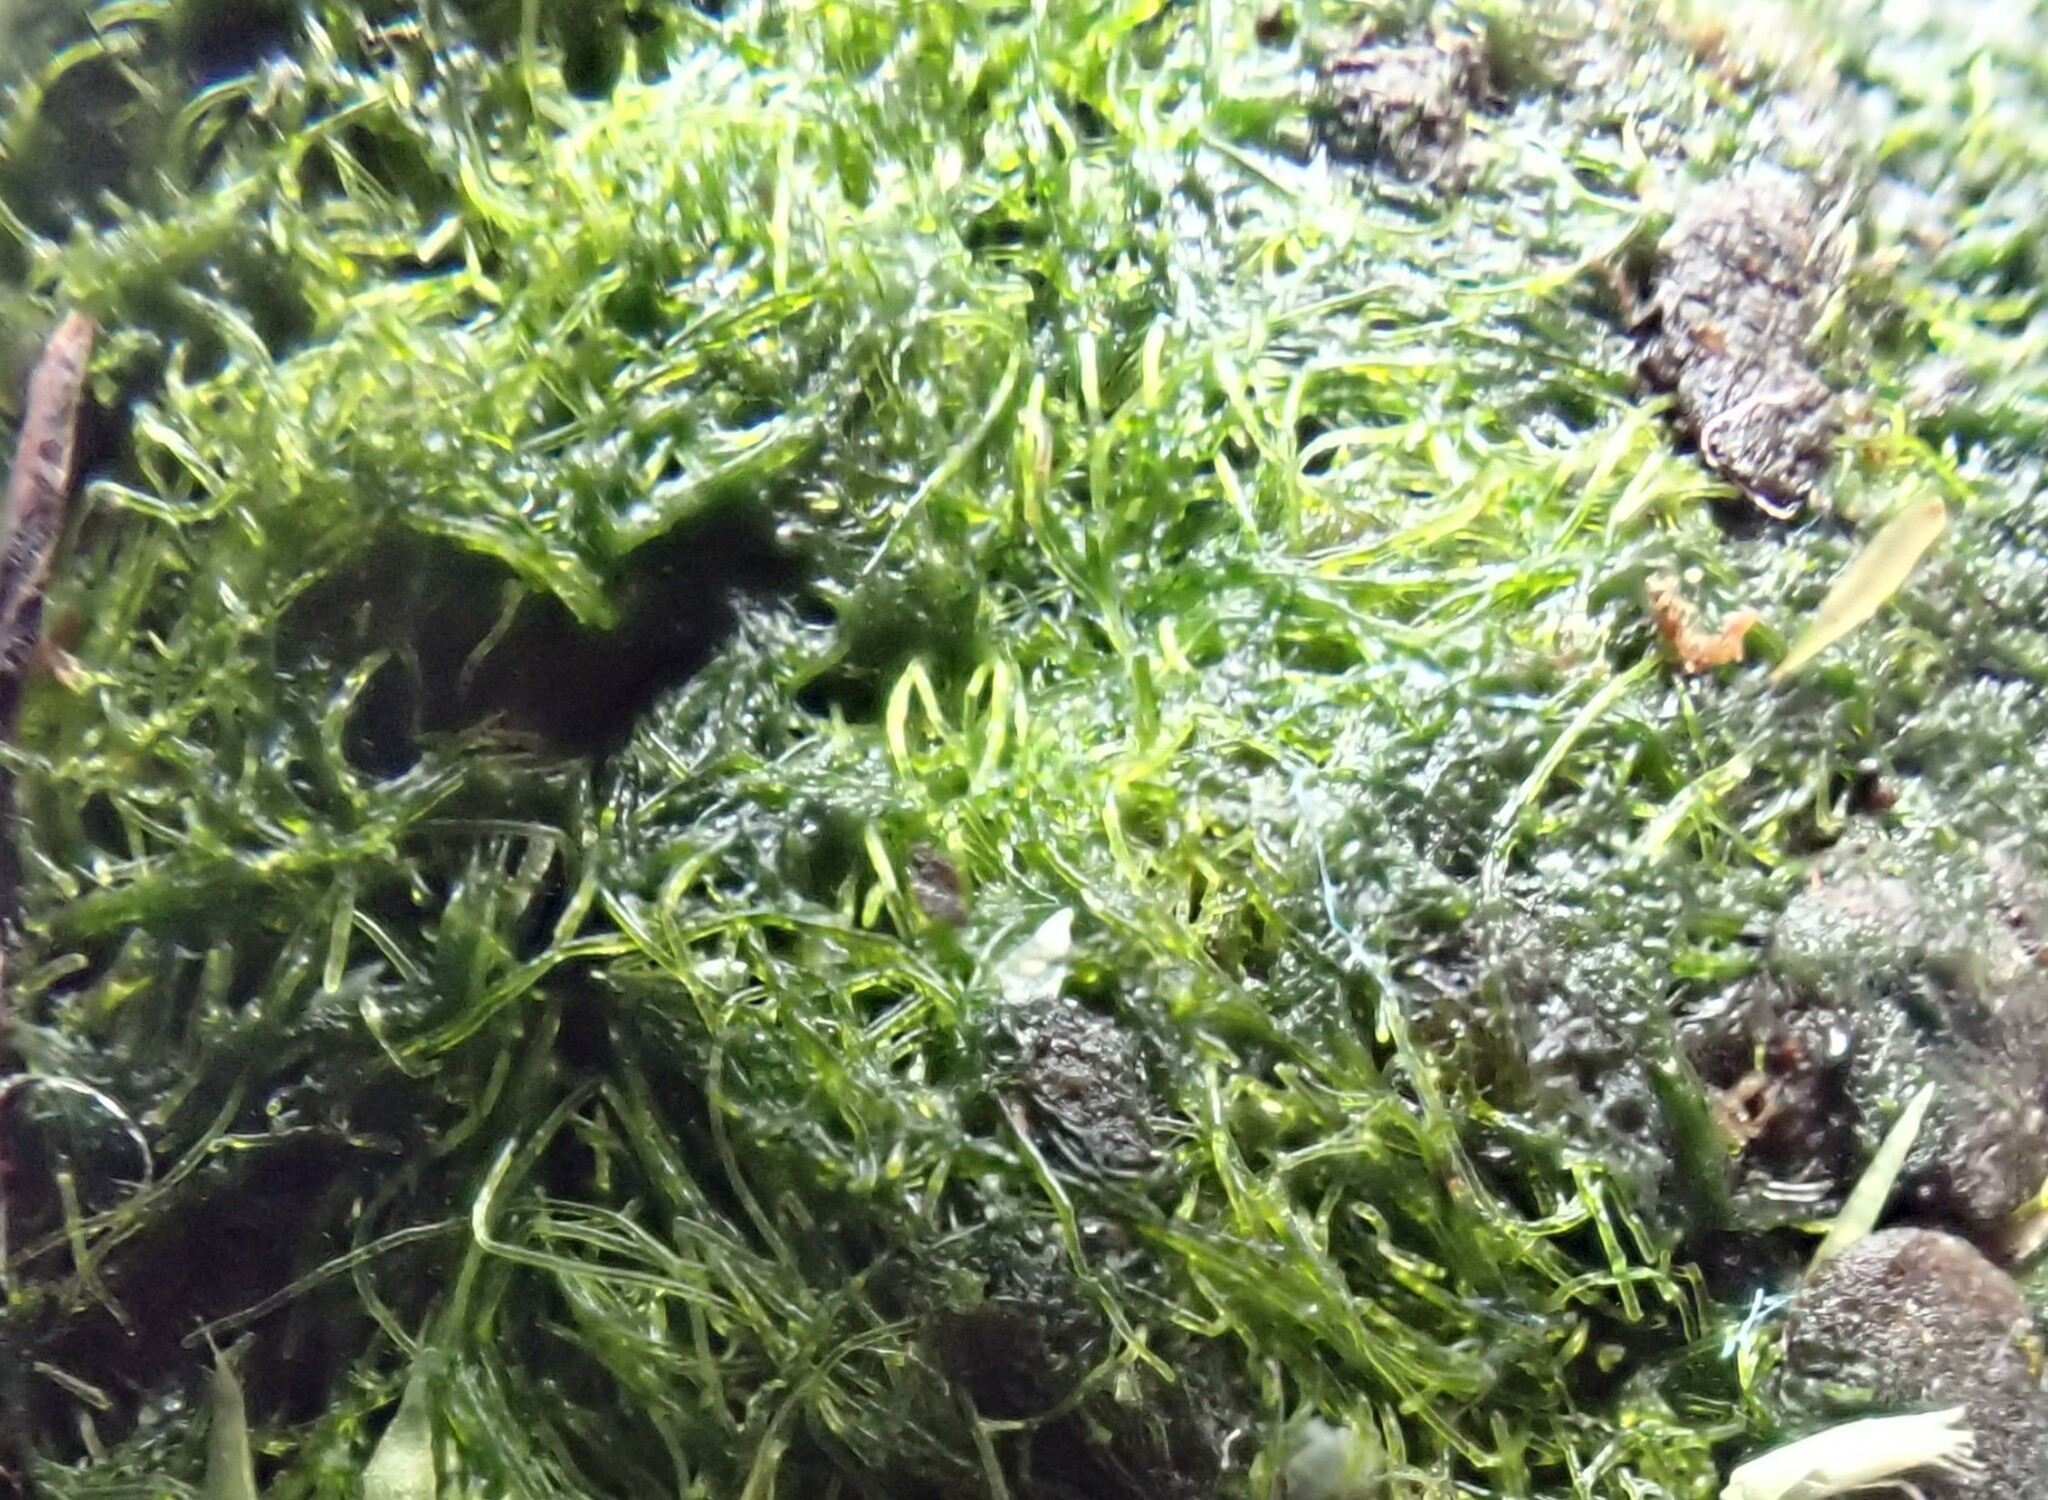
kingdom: Chromista
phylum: Ochrophyta
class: Xanthophyceae
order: Vaucheriales
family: Vaucheriaceae
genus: Vaucheria
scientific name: Vaucheria
